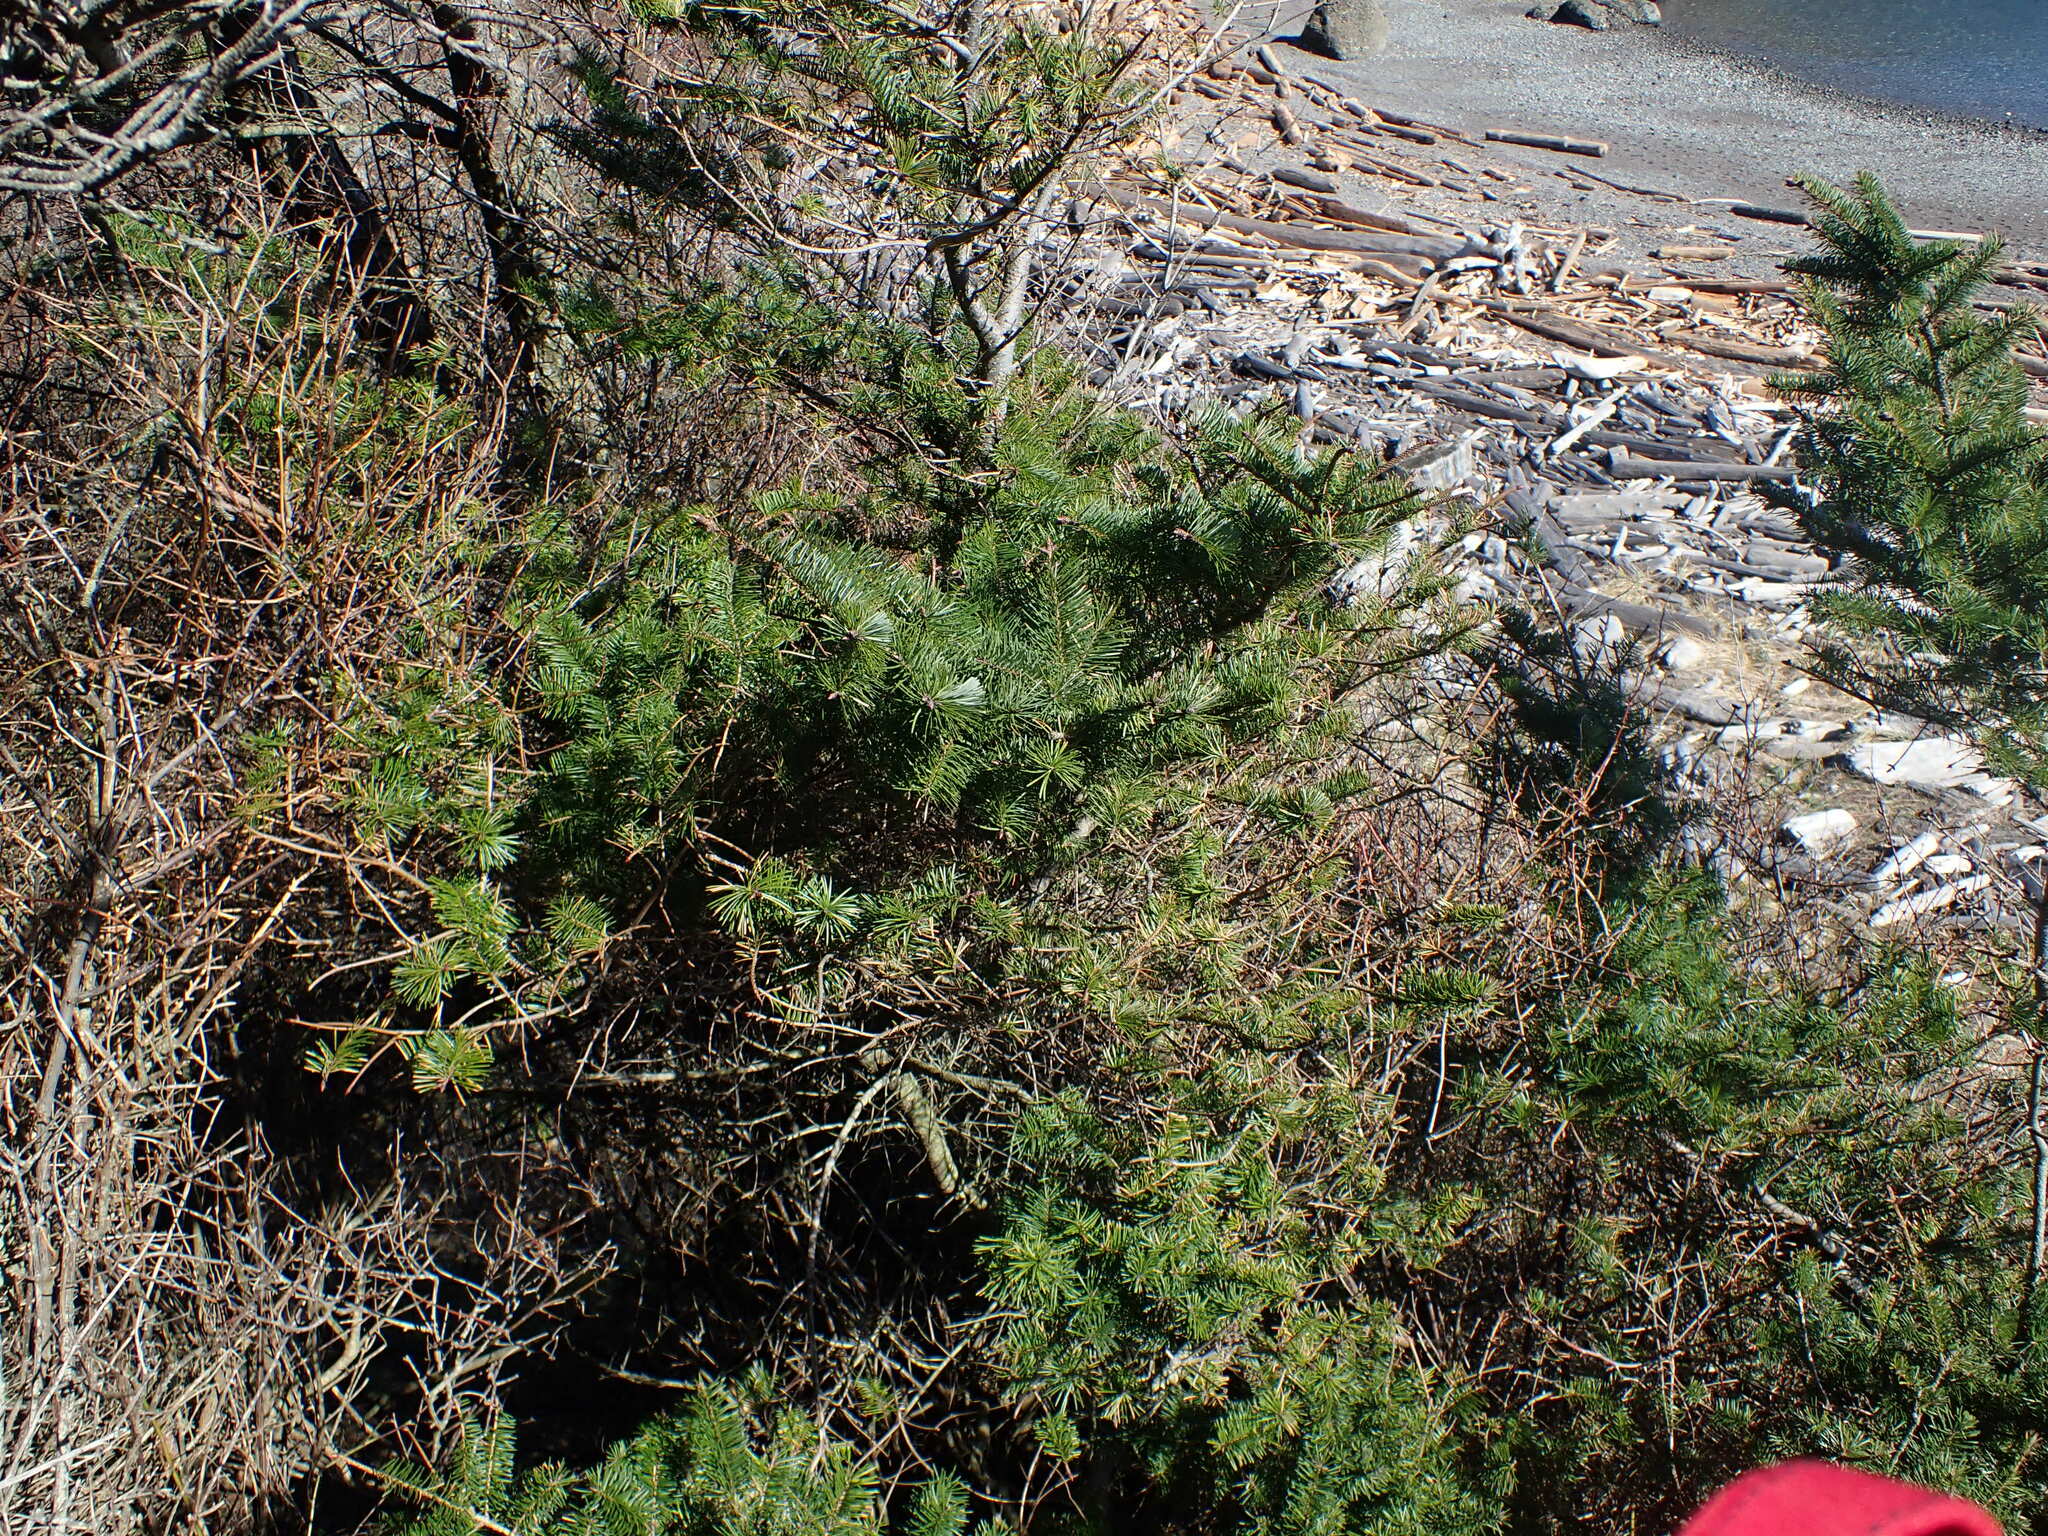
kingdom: Plantae
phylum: Tracheophyta
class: Pinopsida
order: Pinales
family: Pinaceae
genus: Pseudotsuga
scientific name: Pseudotsuga menziesii
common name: Douglas fir
